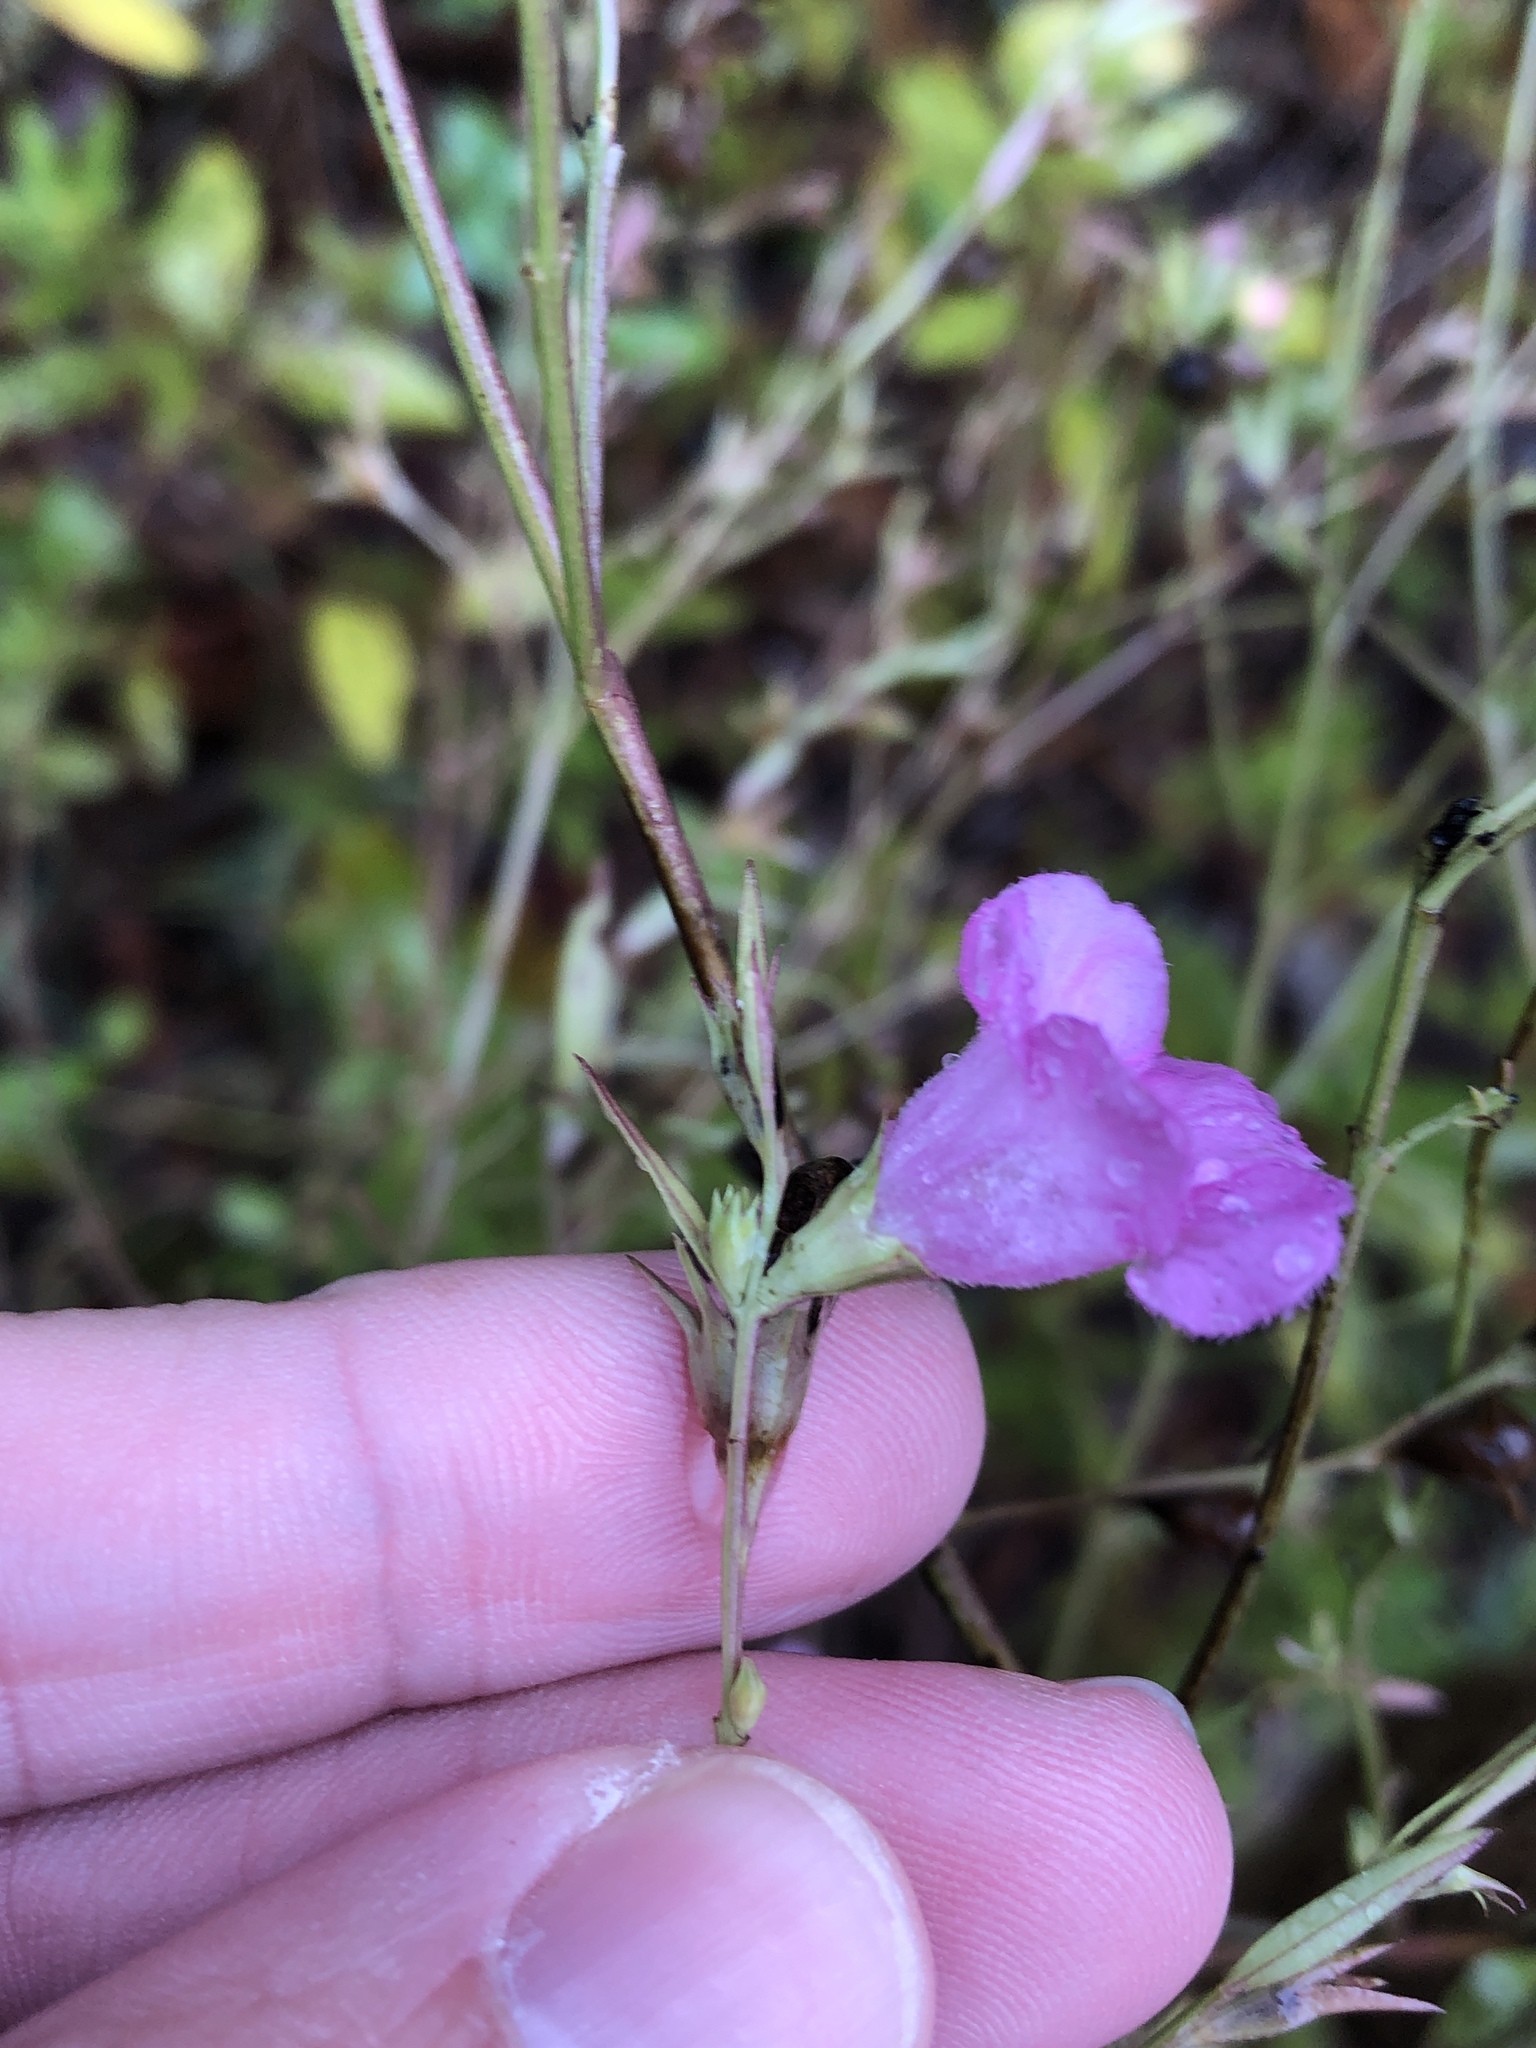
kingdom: Plantae
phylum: Tracheophyta
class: Magnoliopsida
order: Lamiales
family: Orobanchaceae
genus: Agalinis
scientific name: Agalinis heterophylla
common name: Prairie agalinis
